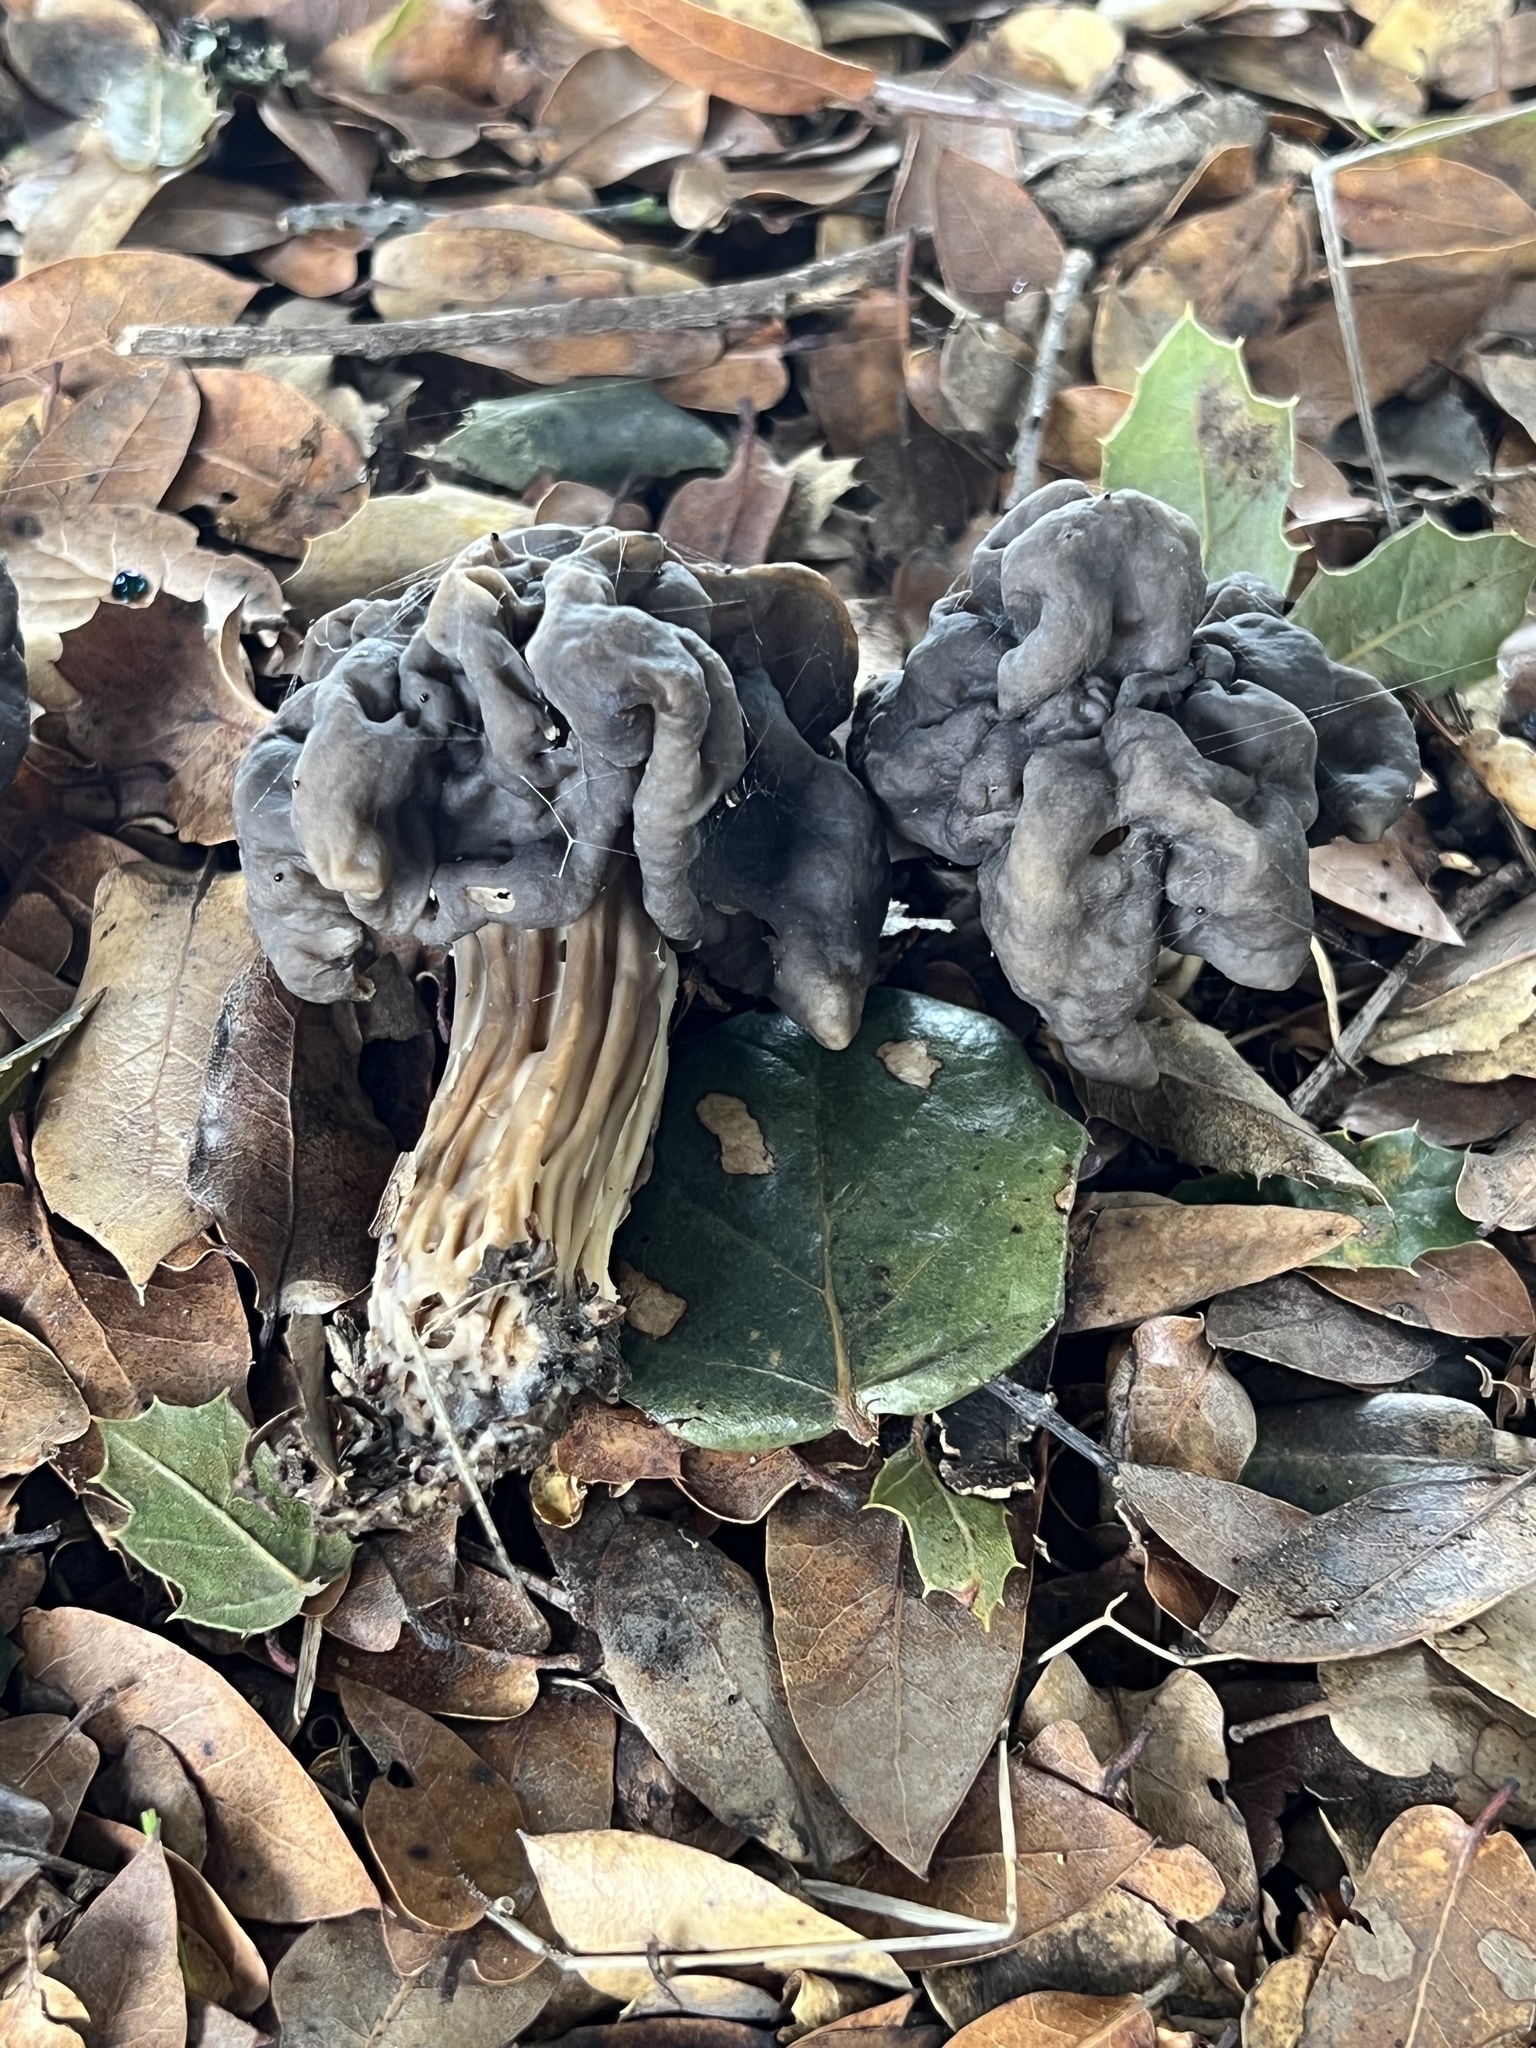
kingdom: Fungi
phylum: Ascomycota
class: Pezizomycetes
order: Pezizales
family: Helvellaceae
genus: Helvella
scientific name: Helvella dryophila
